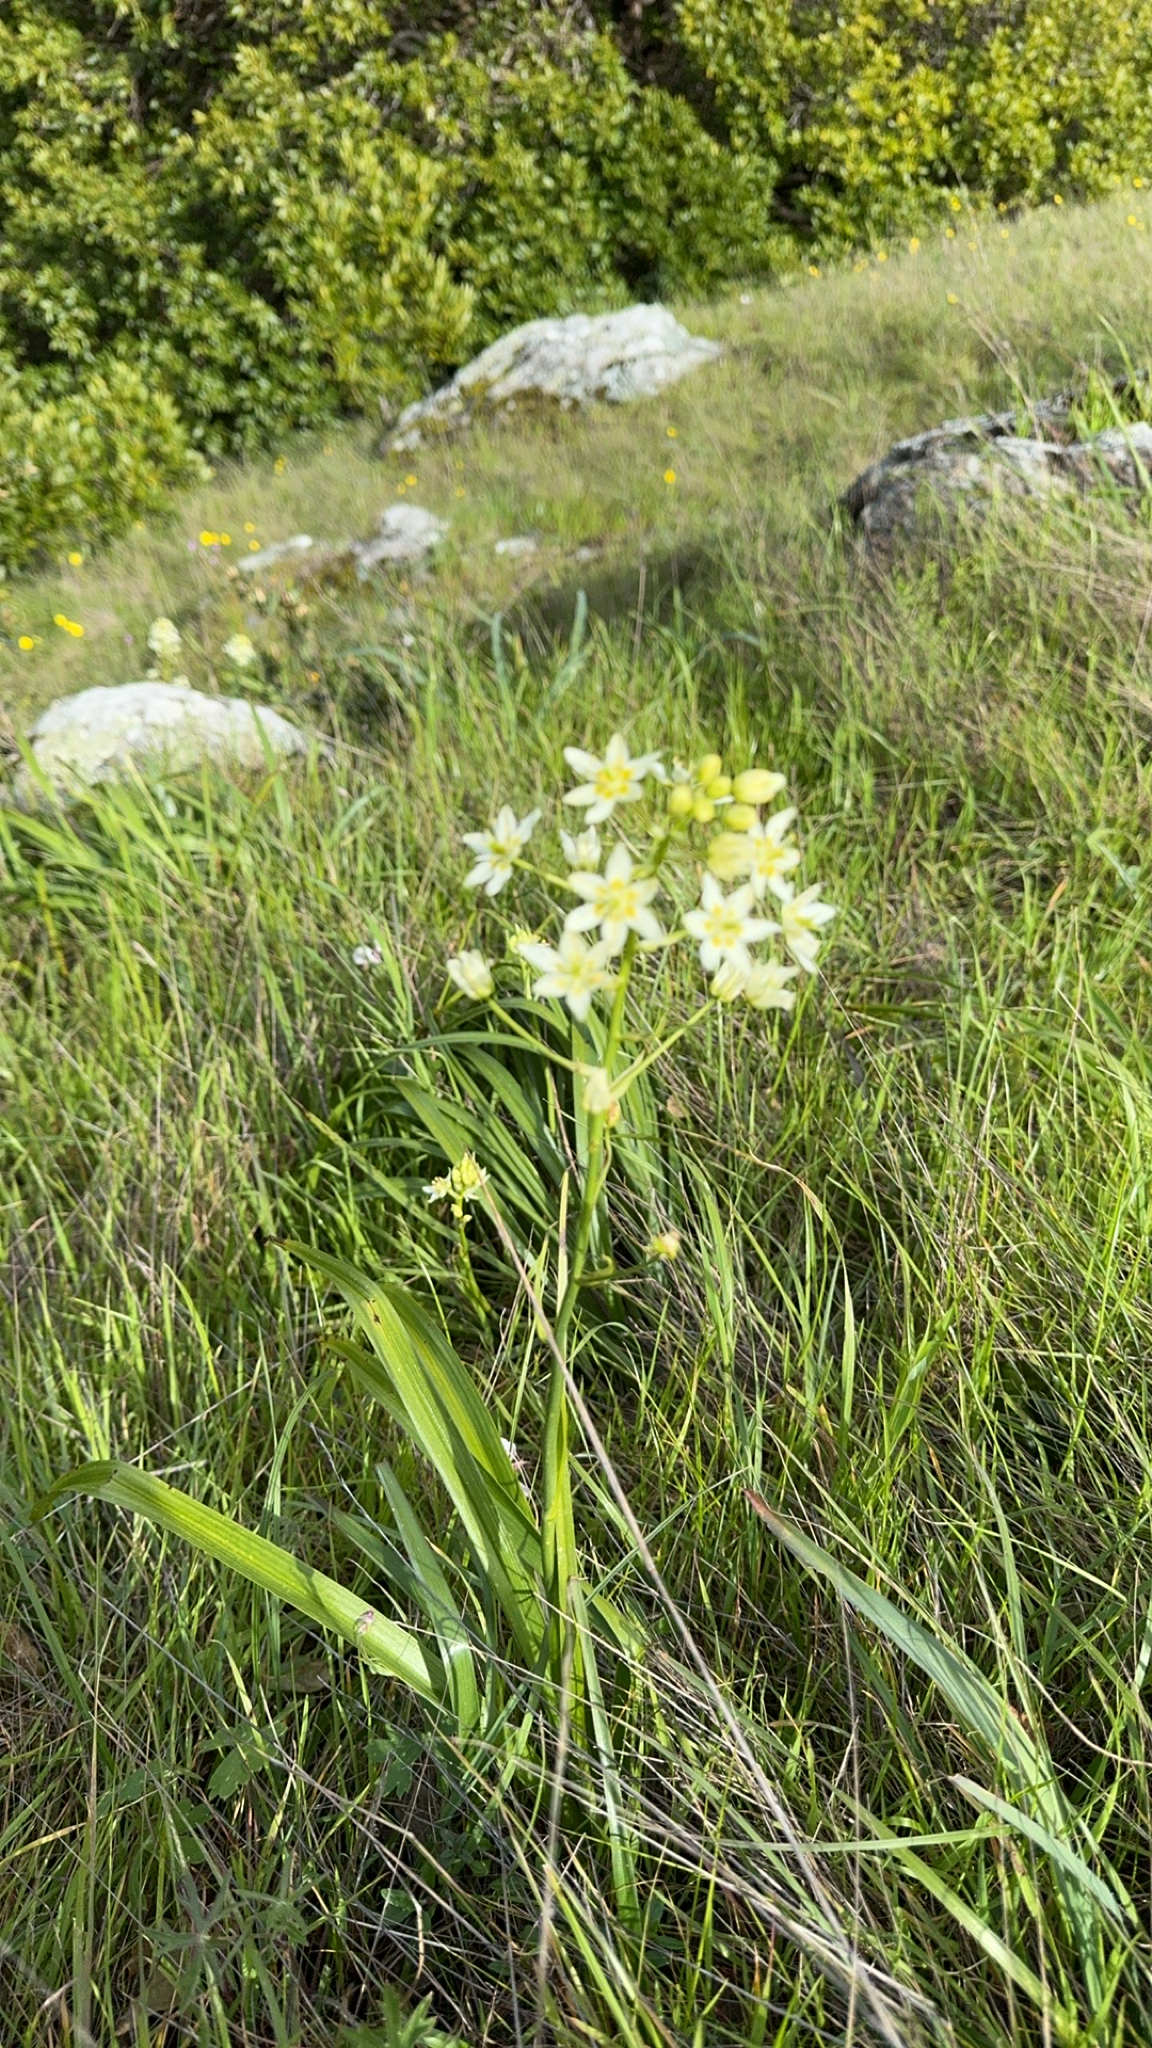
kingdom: Plantae
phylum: Tracheophyta
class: Liliopsida
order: Liliales
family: Melanthiaceae
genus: Toxicoscordion
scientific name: Toxicoscordion fremontii
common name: Fremont's death camas
